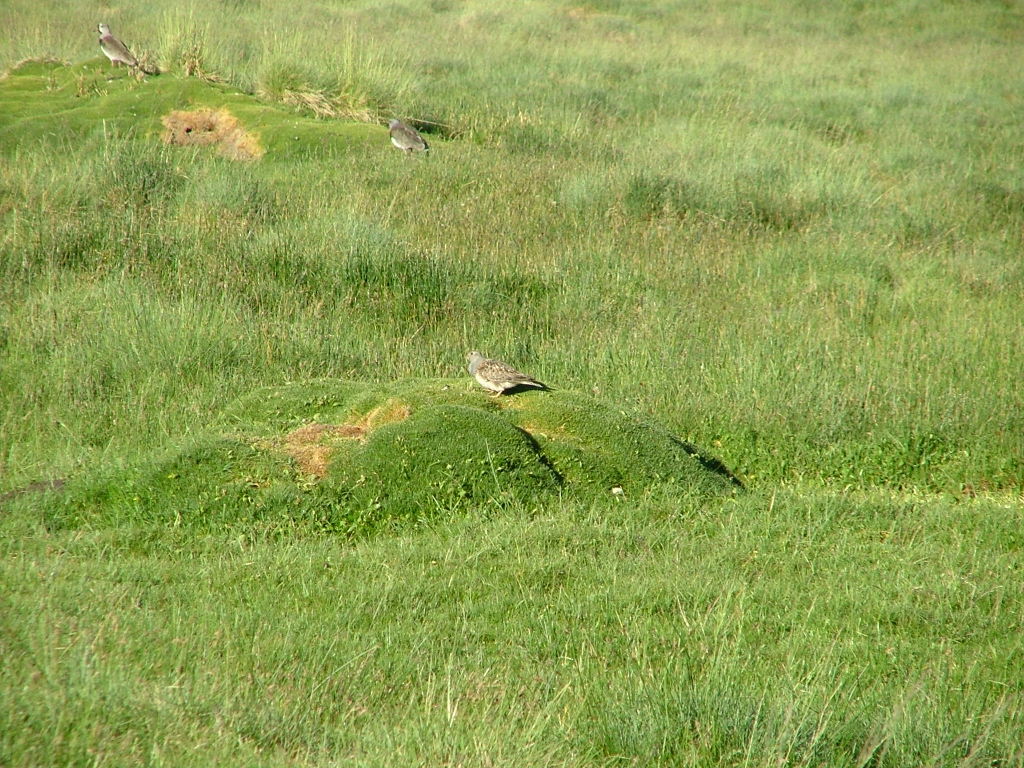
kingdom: Animalia
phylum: Chordata
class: Aves
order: Charadriiformes
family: Thinocoridae
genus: Thinocorus
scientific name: Thinocorus orbignyianus
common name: Grey-breasted seedsnipe
